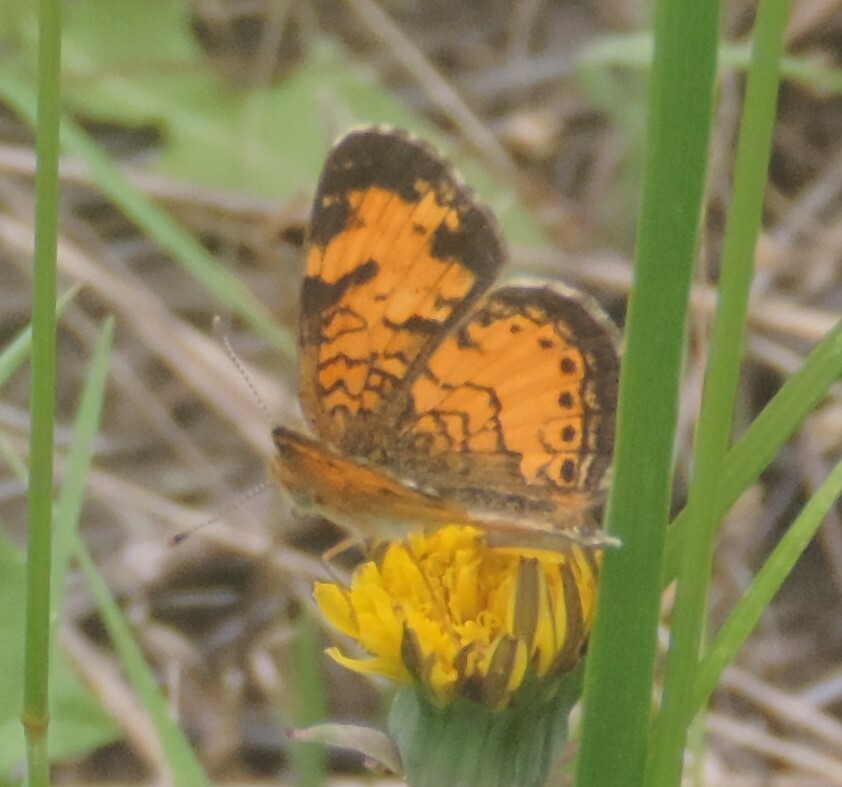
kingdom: Animalia
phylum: Arthropoda
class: Insecta
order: Lepidoptera
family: Nymphalidae
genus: Phyciodes
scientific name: Phyciodes tharos
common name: Pearl crescent
